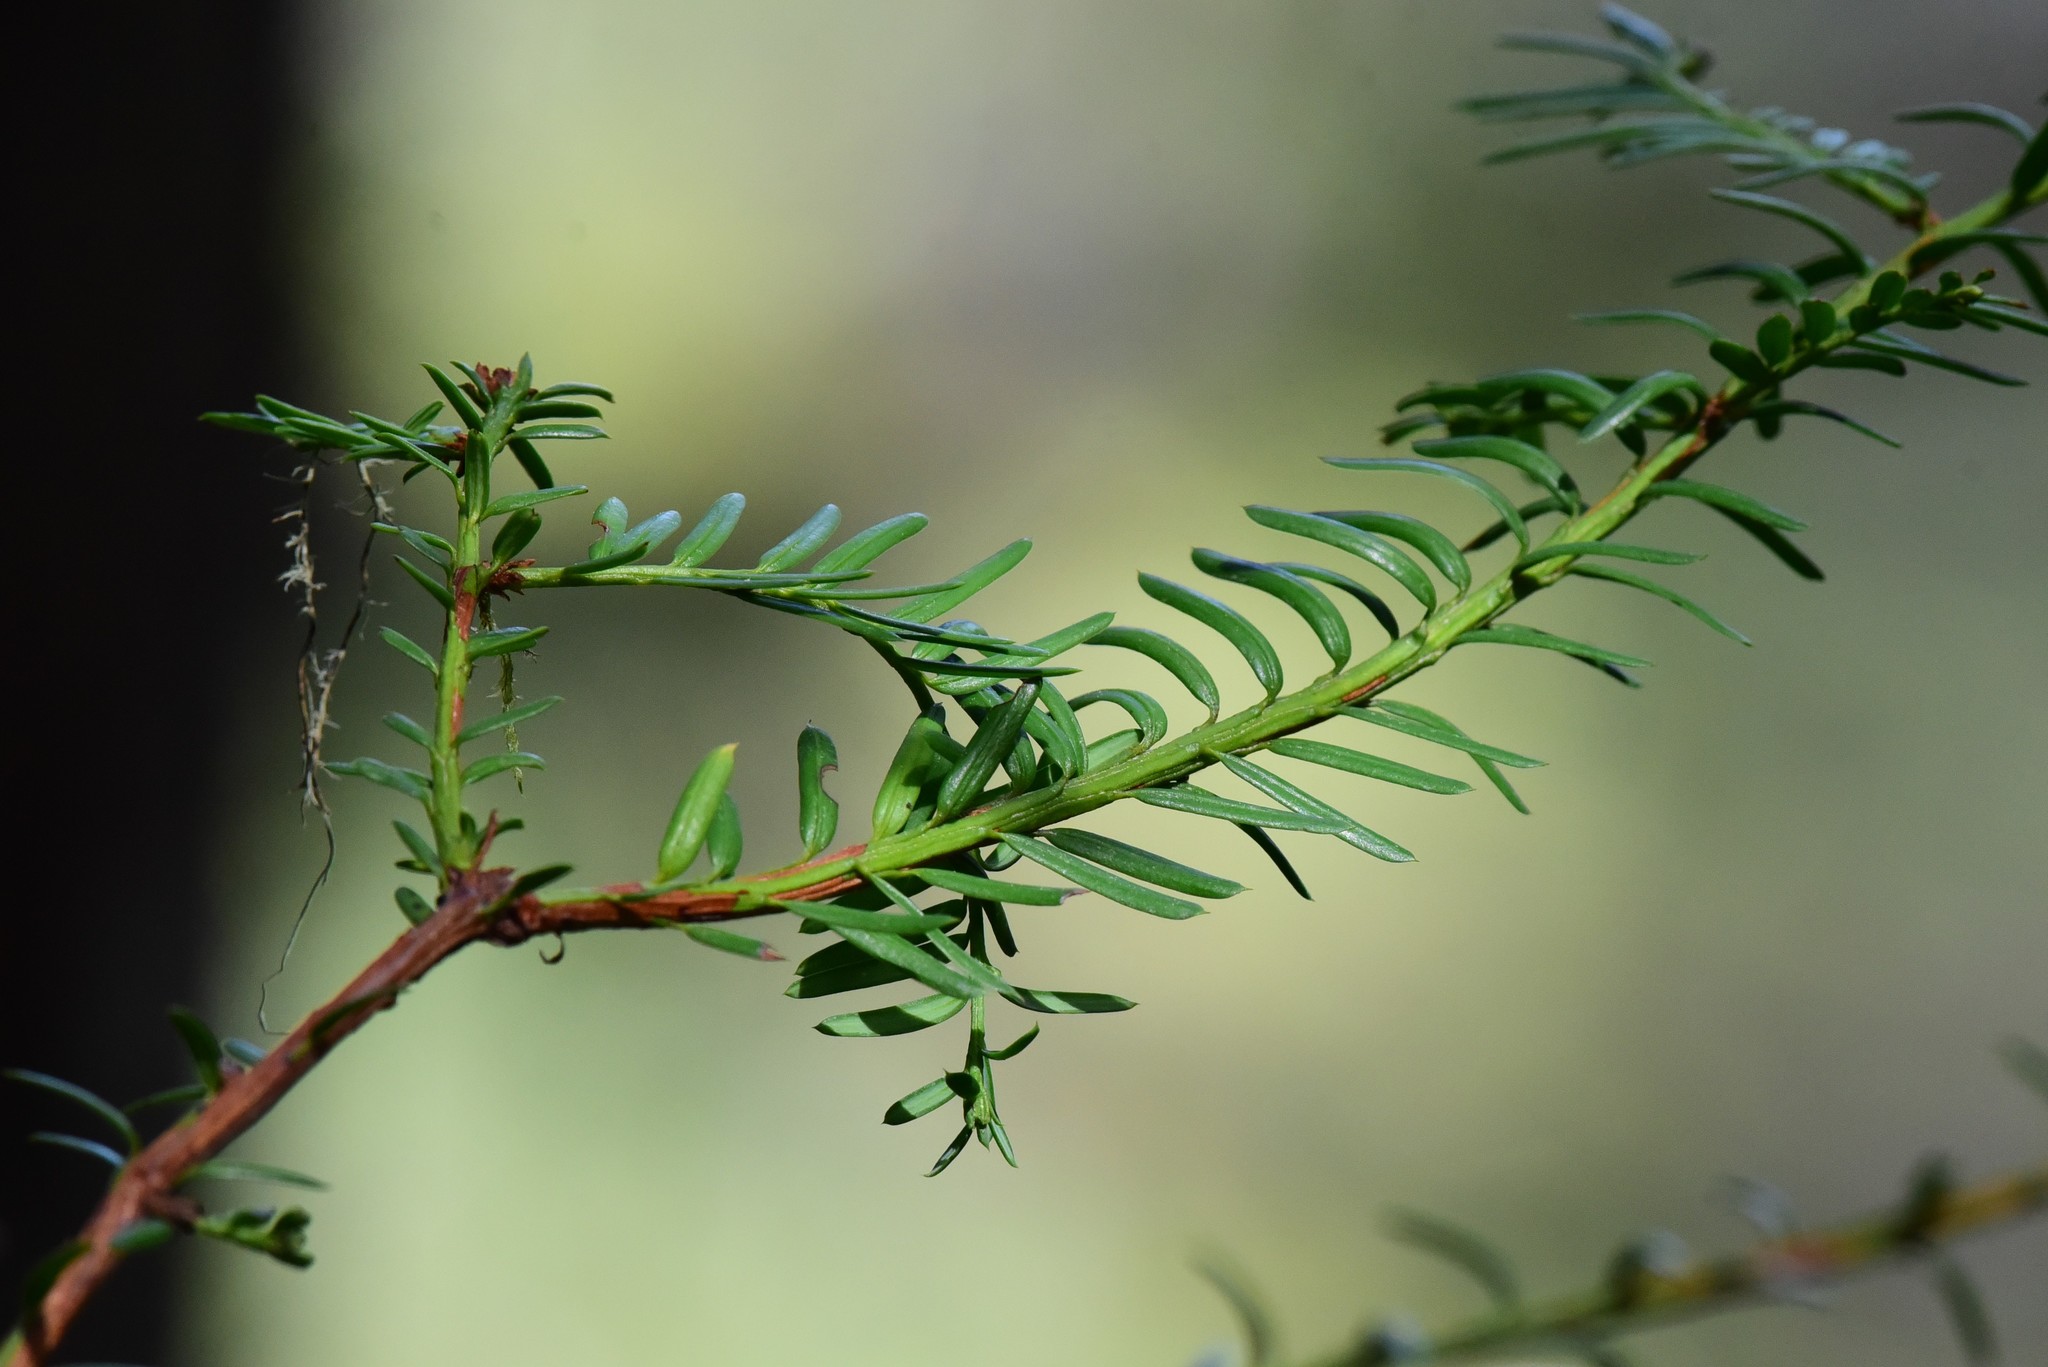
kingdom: Plantae
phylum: Tracheophyta
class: Pinopsida
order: Pinales
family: Taxaceae
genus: Taxus
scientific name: Taxus brevifolia
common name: Pacific yew
